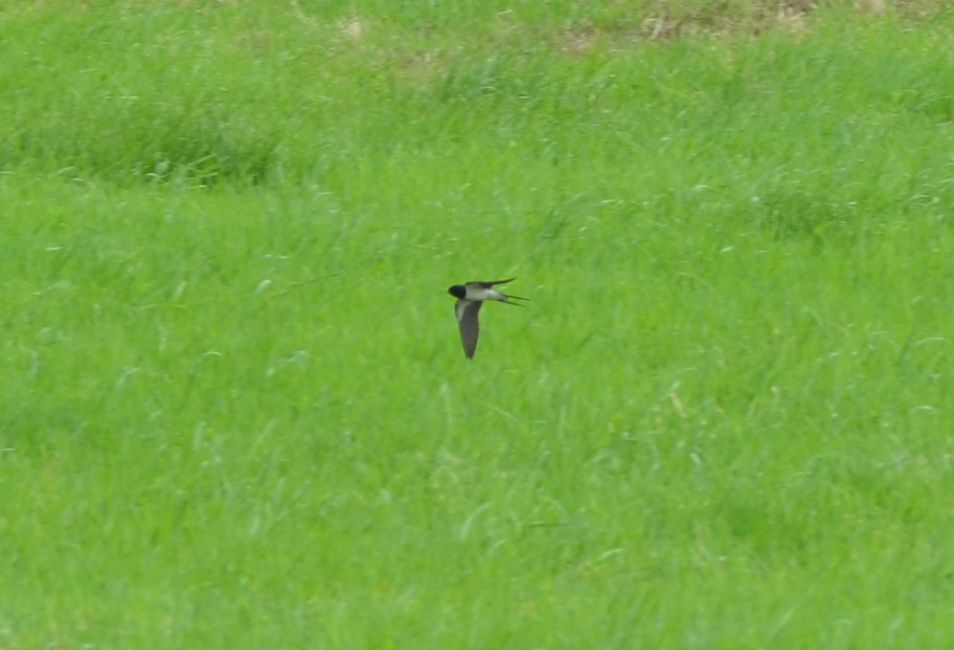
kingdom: Animalia
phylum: Chordata
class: Aves
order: Passeriformes
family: Hirundinidae
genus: Hirundo
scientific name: Hirundo rustica
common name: Barn swallow
